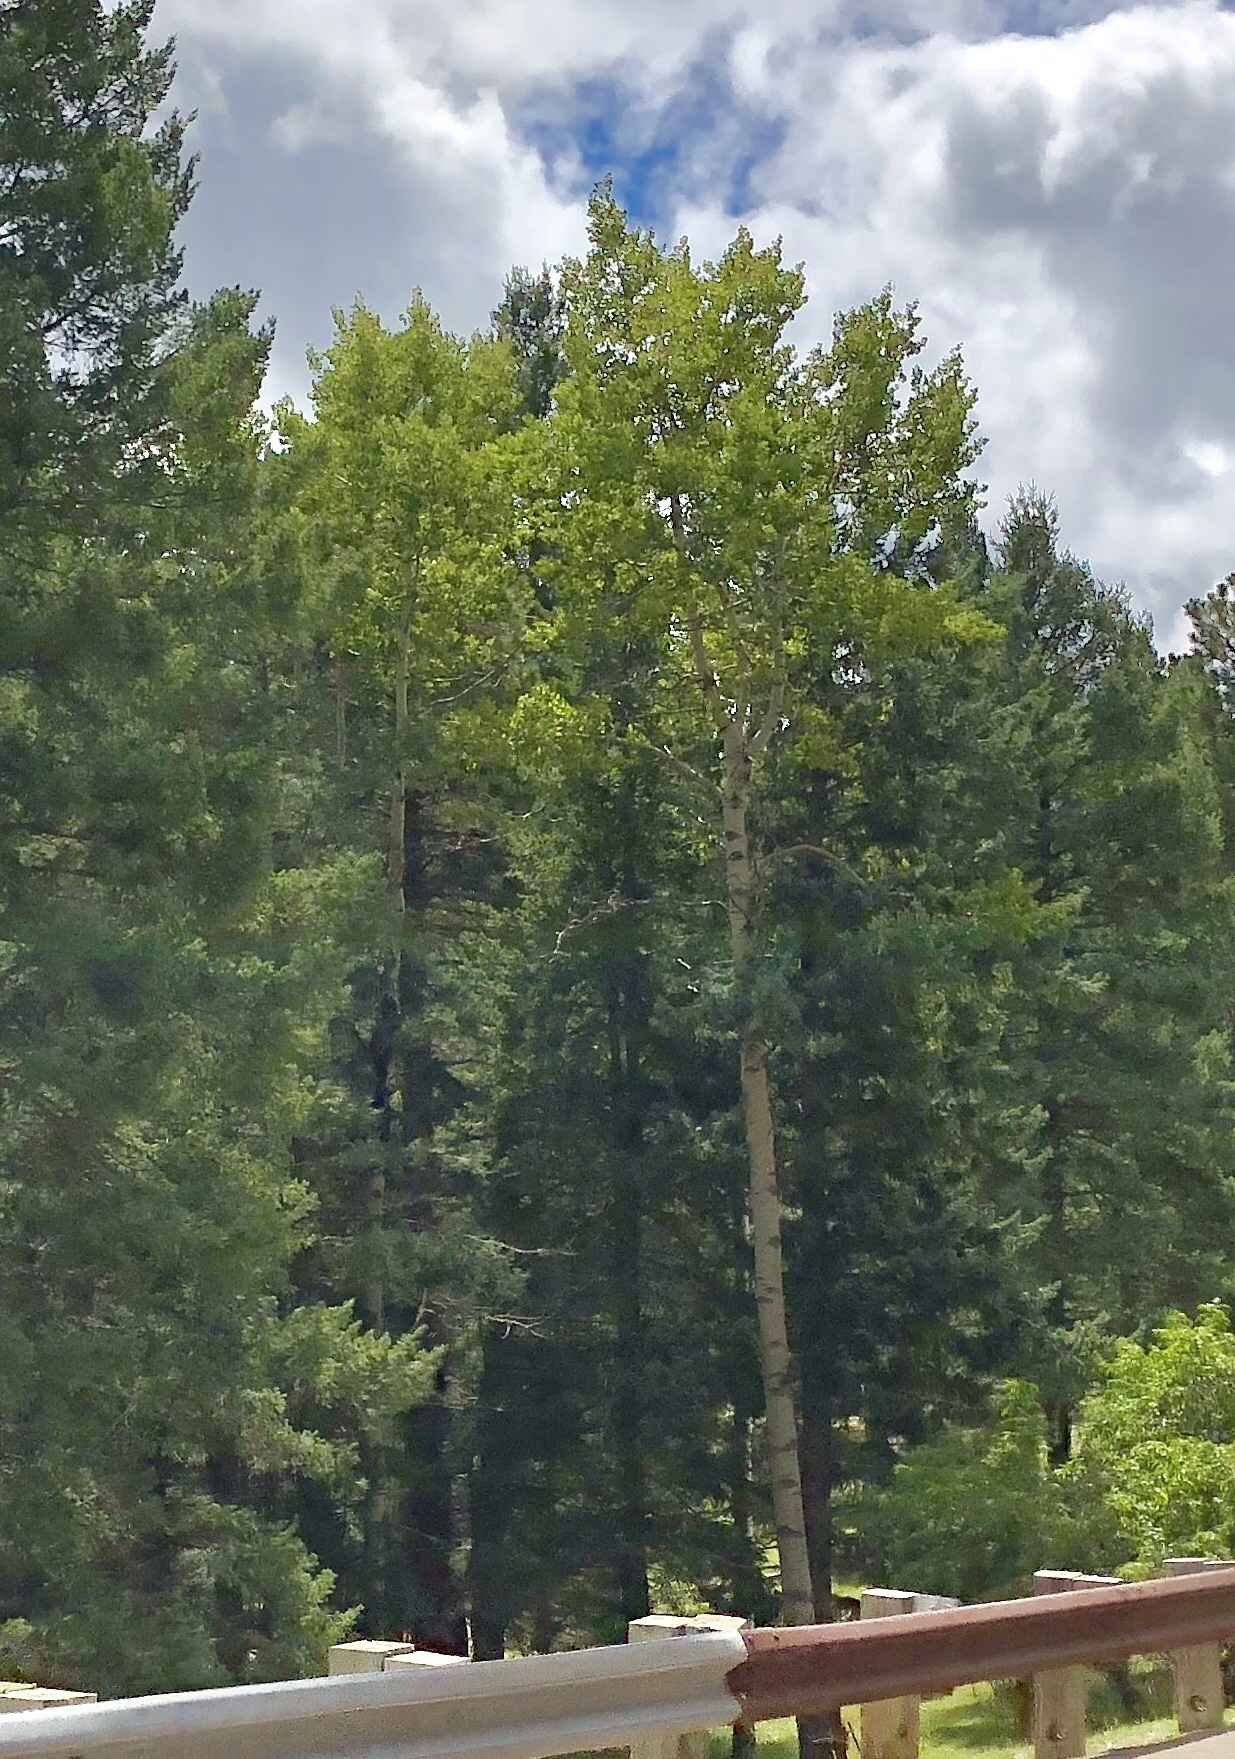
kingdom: Plantae
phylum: Tracheophyta
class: Magnoliopsida
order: Malpighiales
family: Salicaceae
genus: Populus
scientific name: Populus tremuloides
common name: Quaking aspen
